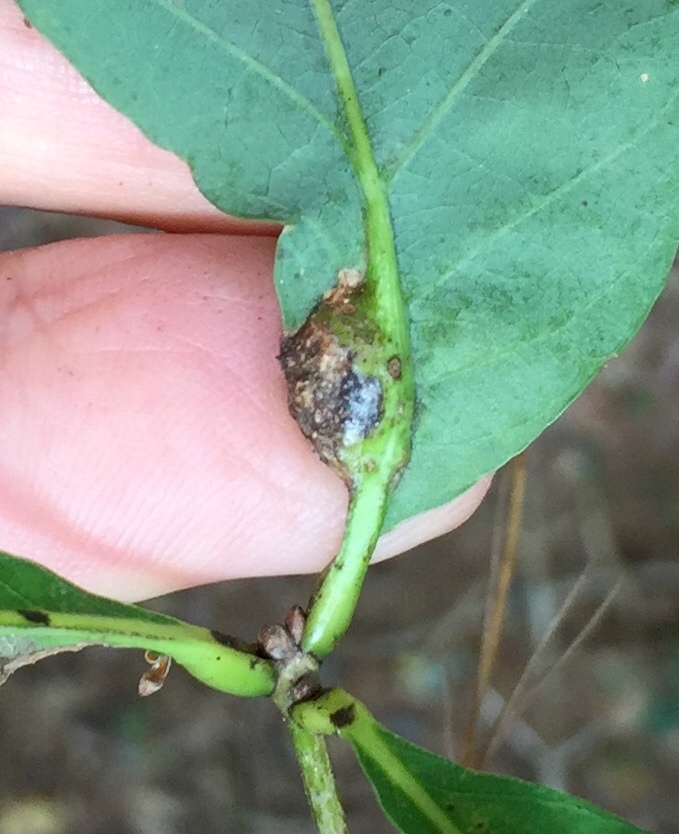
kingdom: Animalia
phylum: Arthropoda
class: Insecta
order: Hymenoptera
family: Cynipidae
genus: Andricus
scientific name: Andricus
